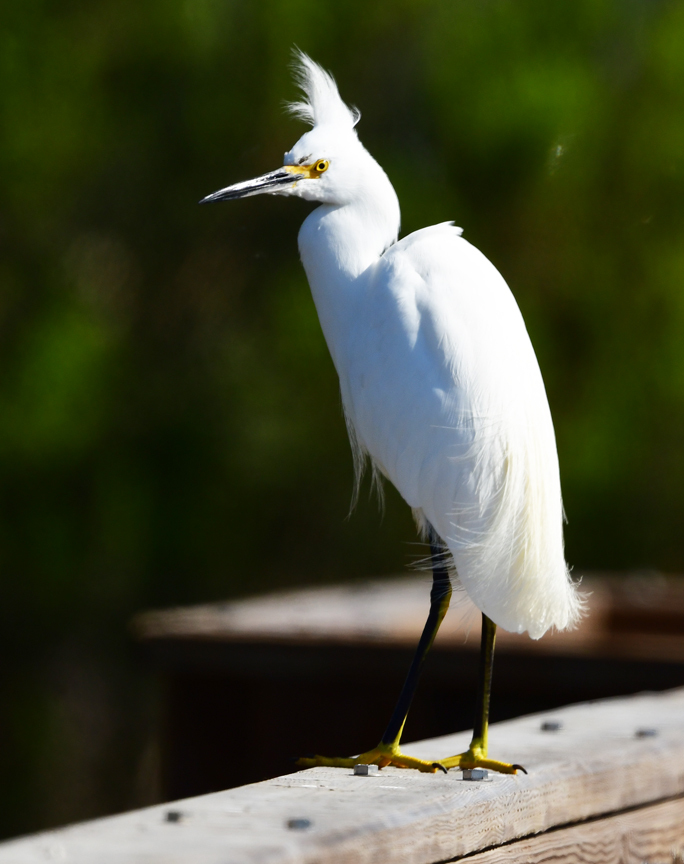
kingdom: Animalia
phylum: Chordata
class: Aves
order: Pelecaniformes
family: Ardeidae
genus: Egretta
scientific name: Egretta thula
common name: Snowy egret
